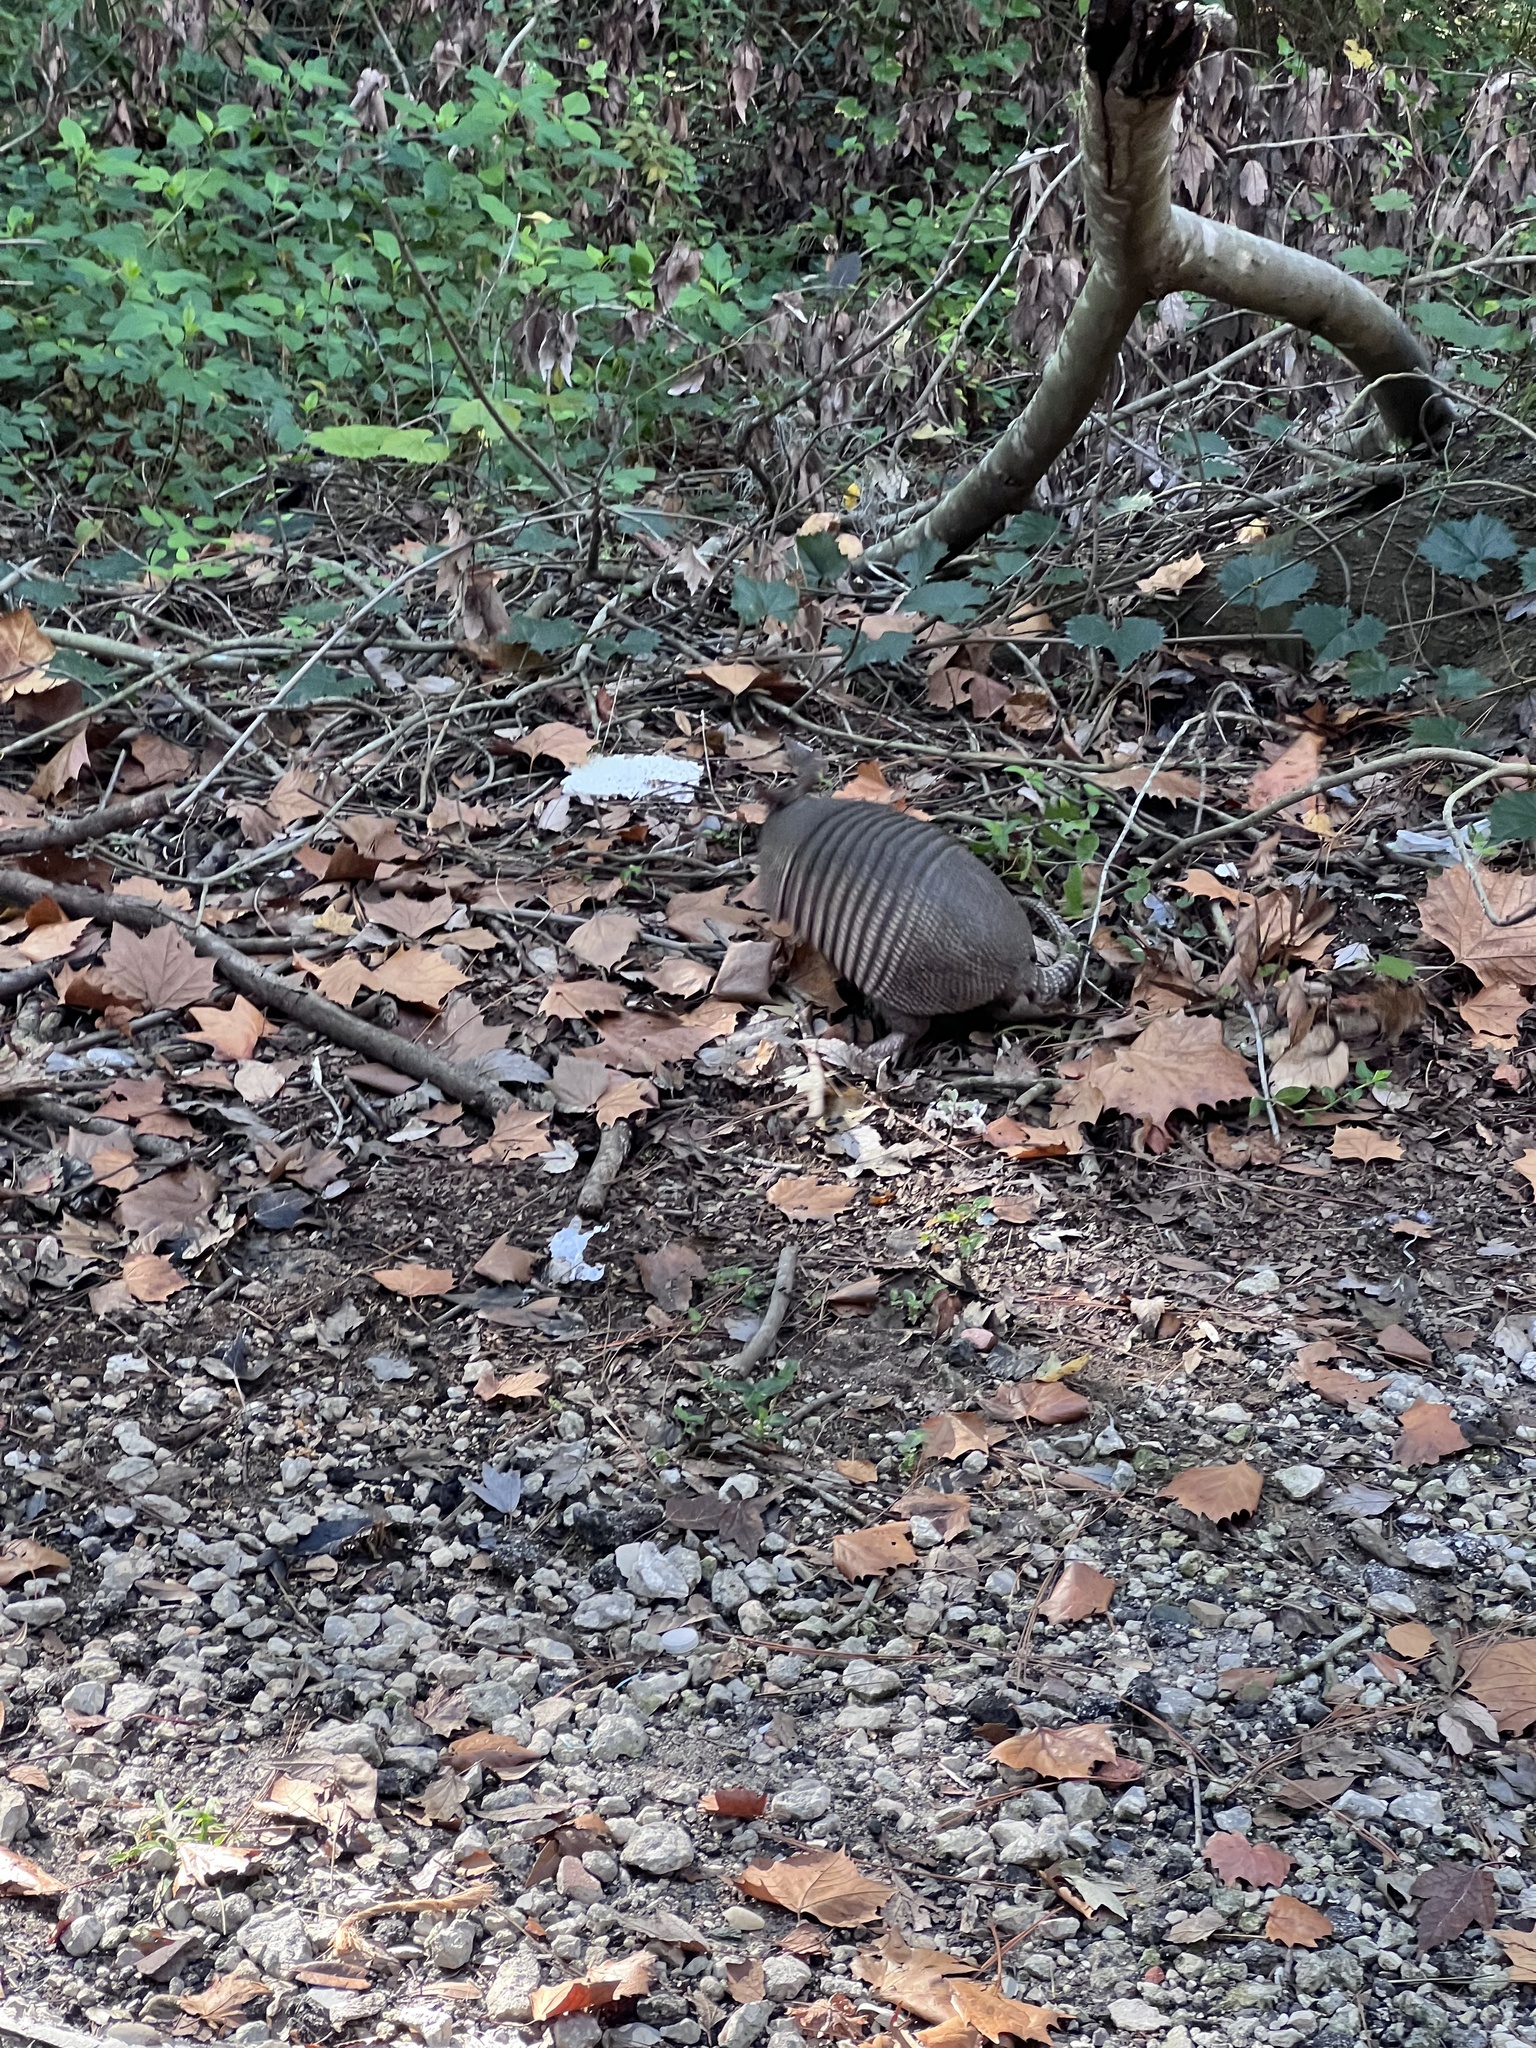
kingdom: Animalia
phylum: Chordata
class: Mammalia
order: Cingulata
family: Dasypodidae
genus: Dasypus
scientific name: Dasypus novemcinctus
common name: Nine-banded armadillo
